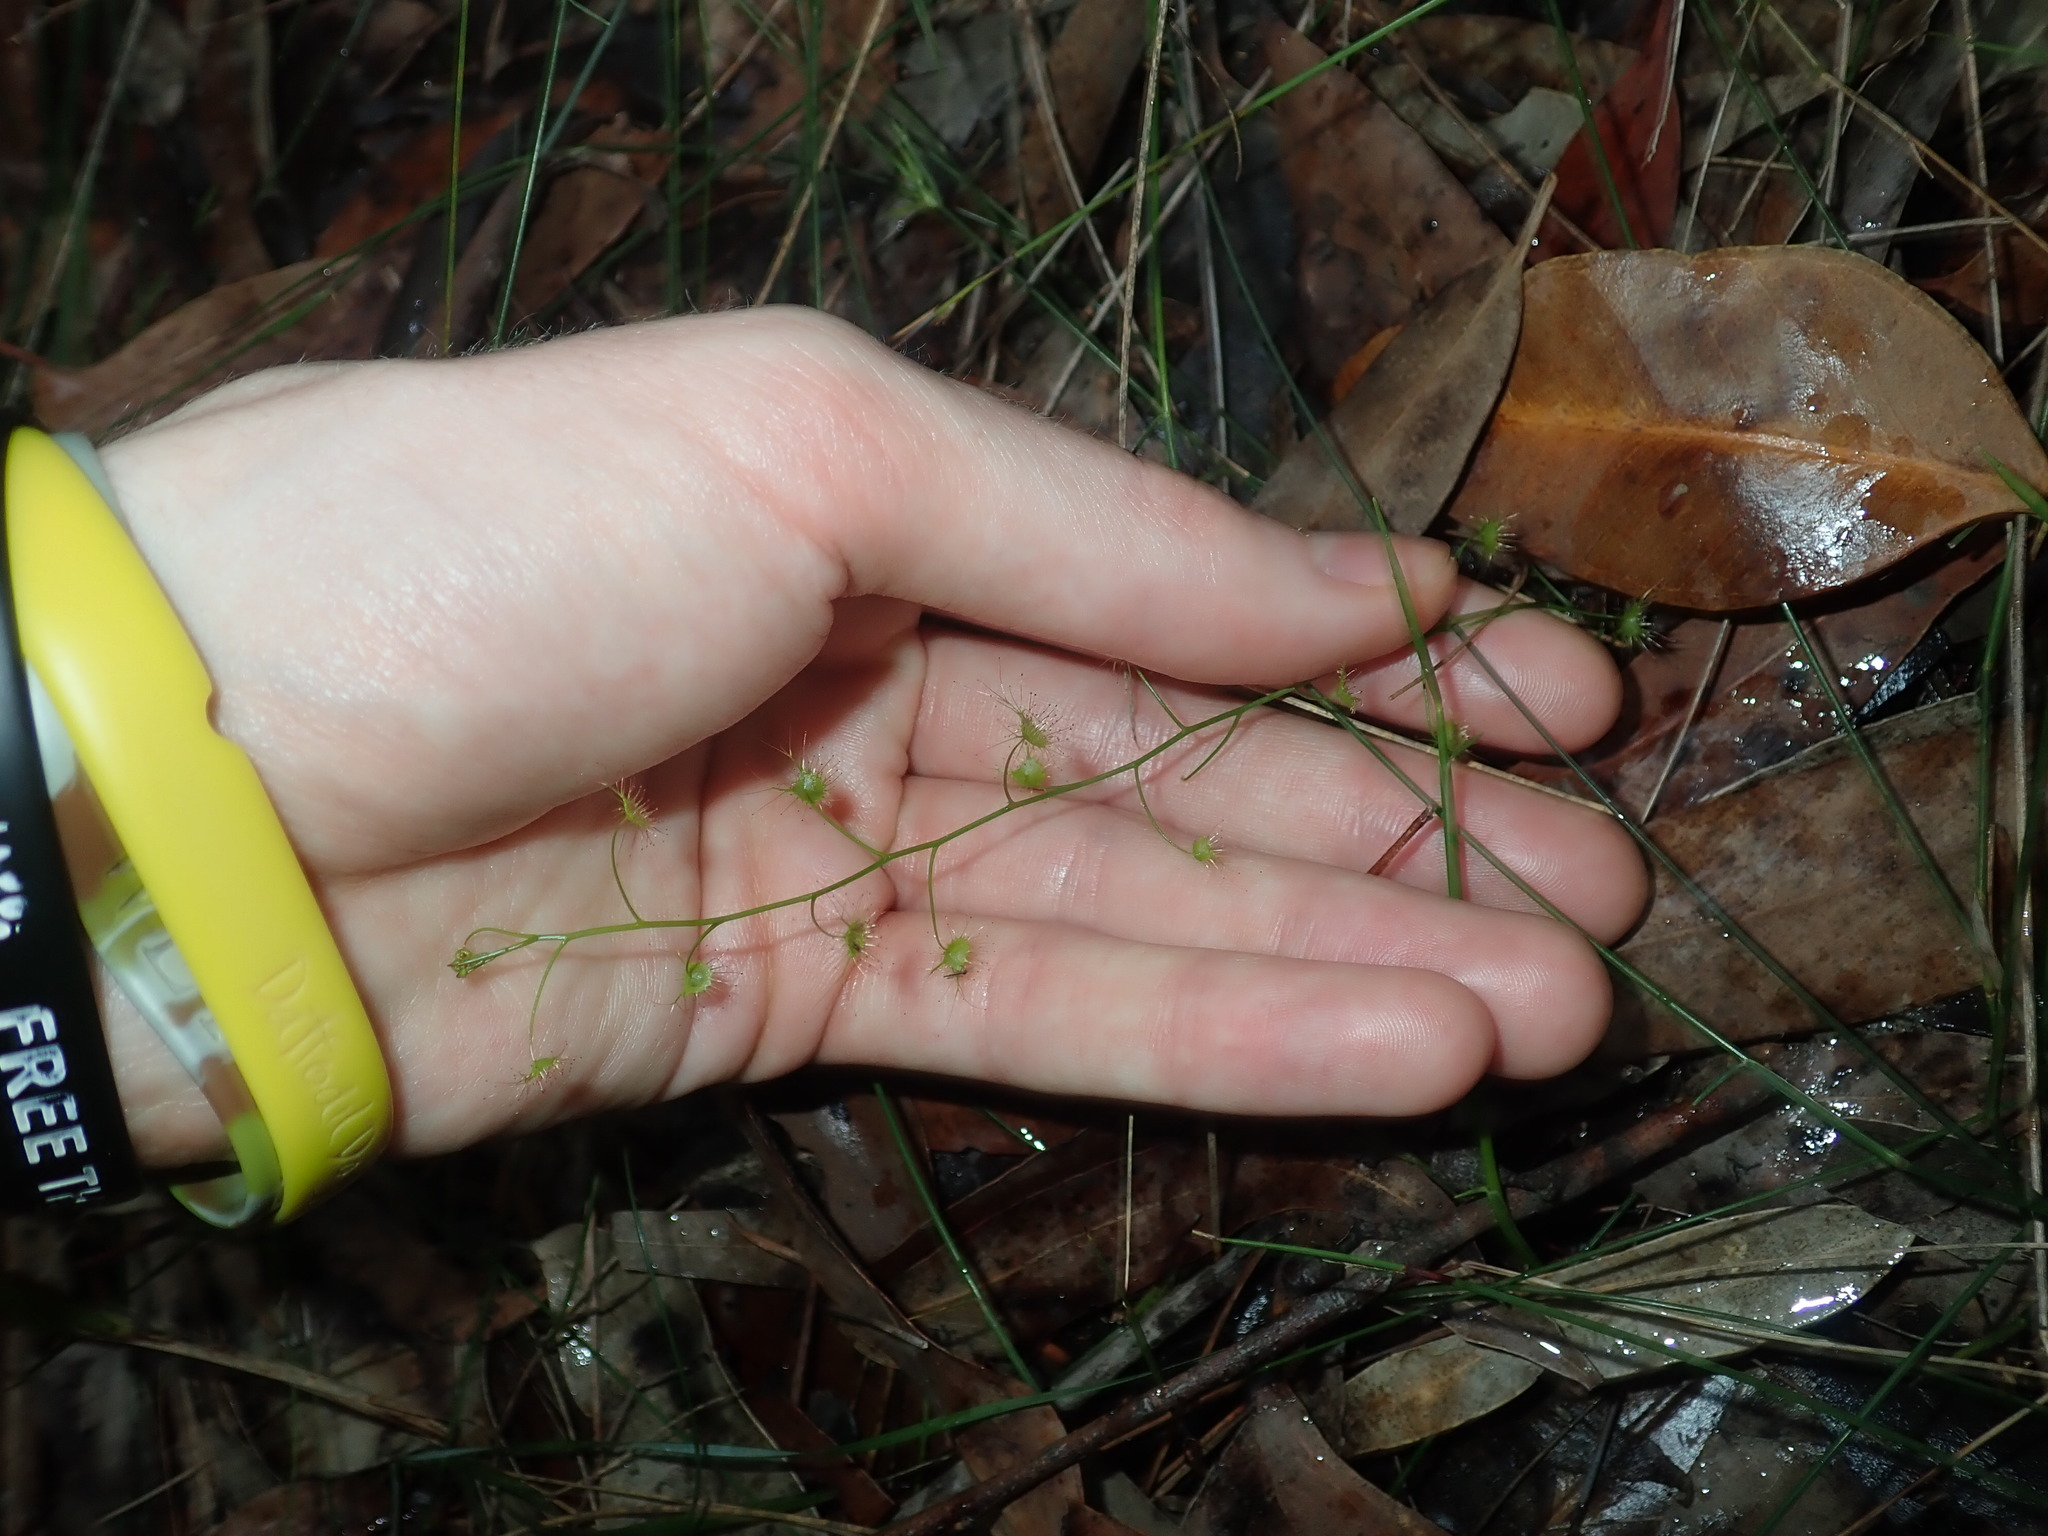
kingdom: Plantae
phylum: Tracheophyta
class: Magnoliopsida
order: Caryophyllales
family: Droseraceae
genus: Drosera
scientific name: Drosera peltata
